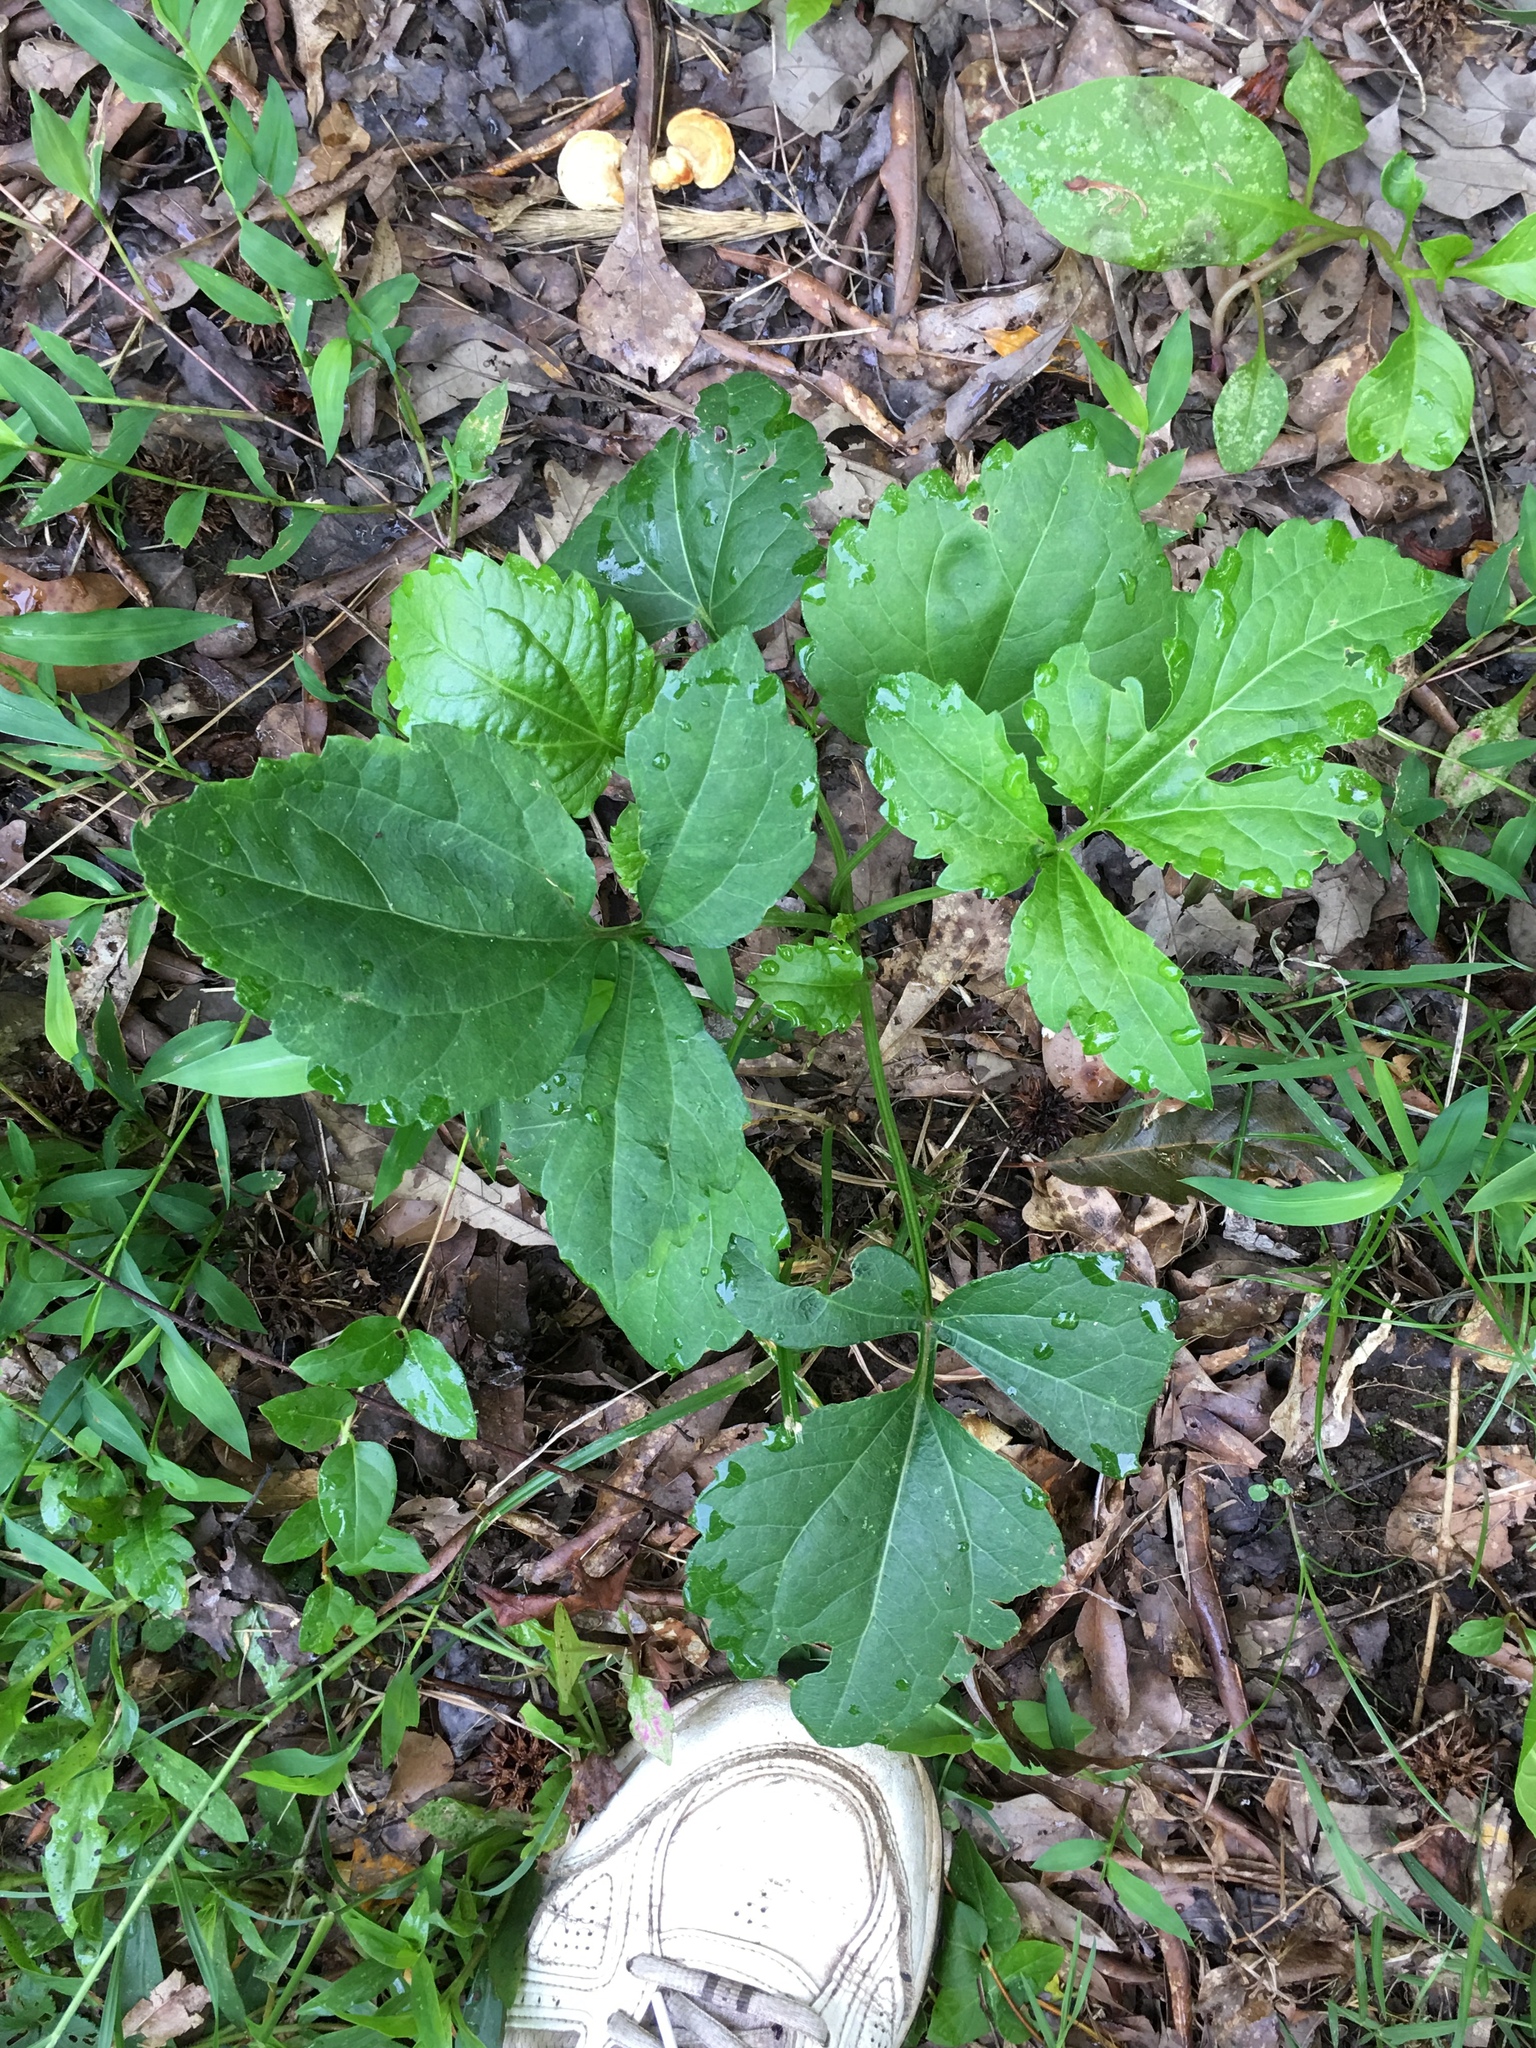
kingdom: Plantae
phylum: Tracheophyta
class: Magnoliopsida
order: Apiales
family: Apiaceae
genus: Sanicula
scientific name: Sanicula canadensis
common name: Canada sanicle
